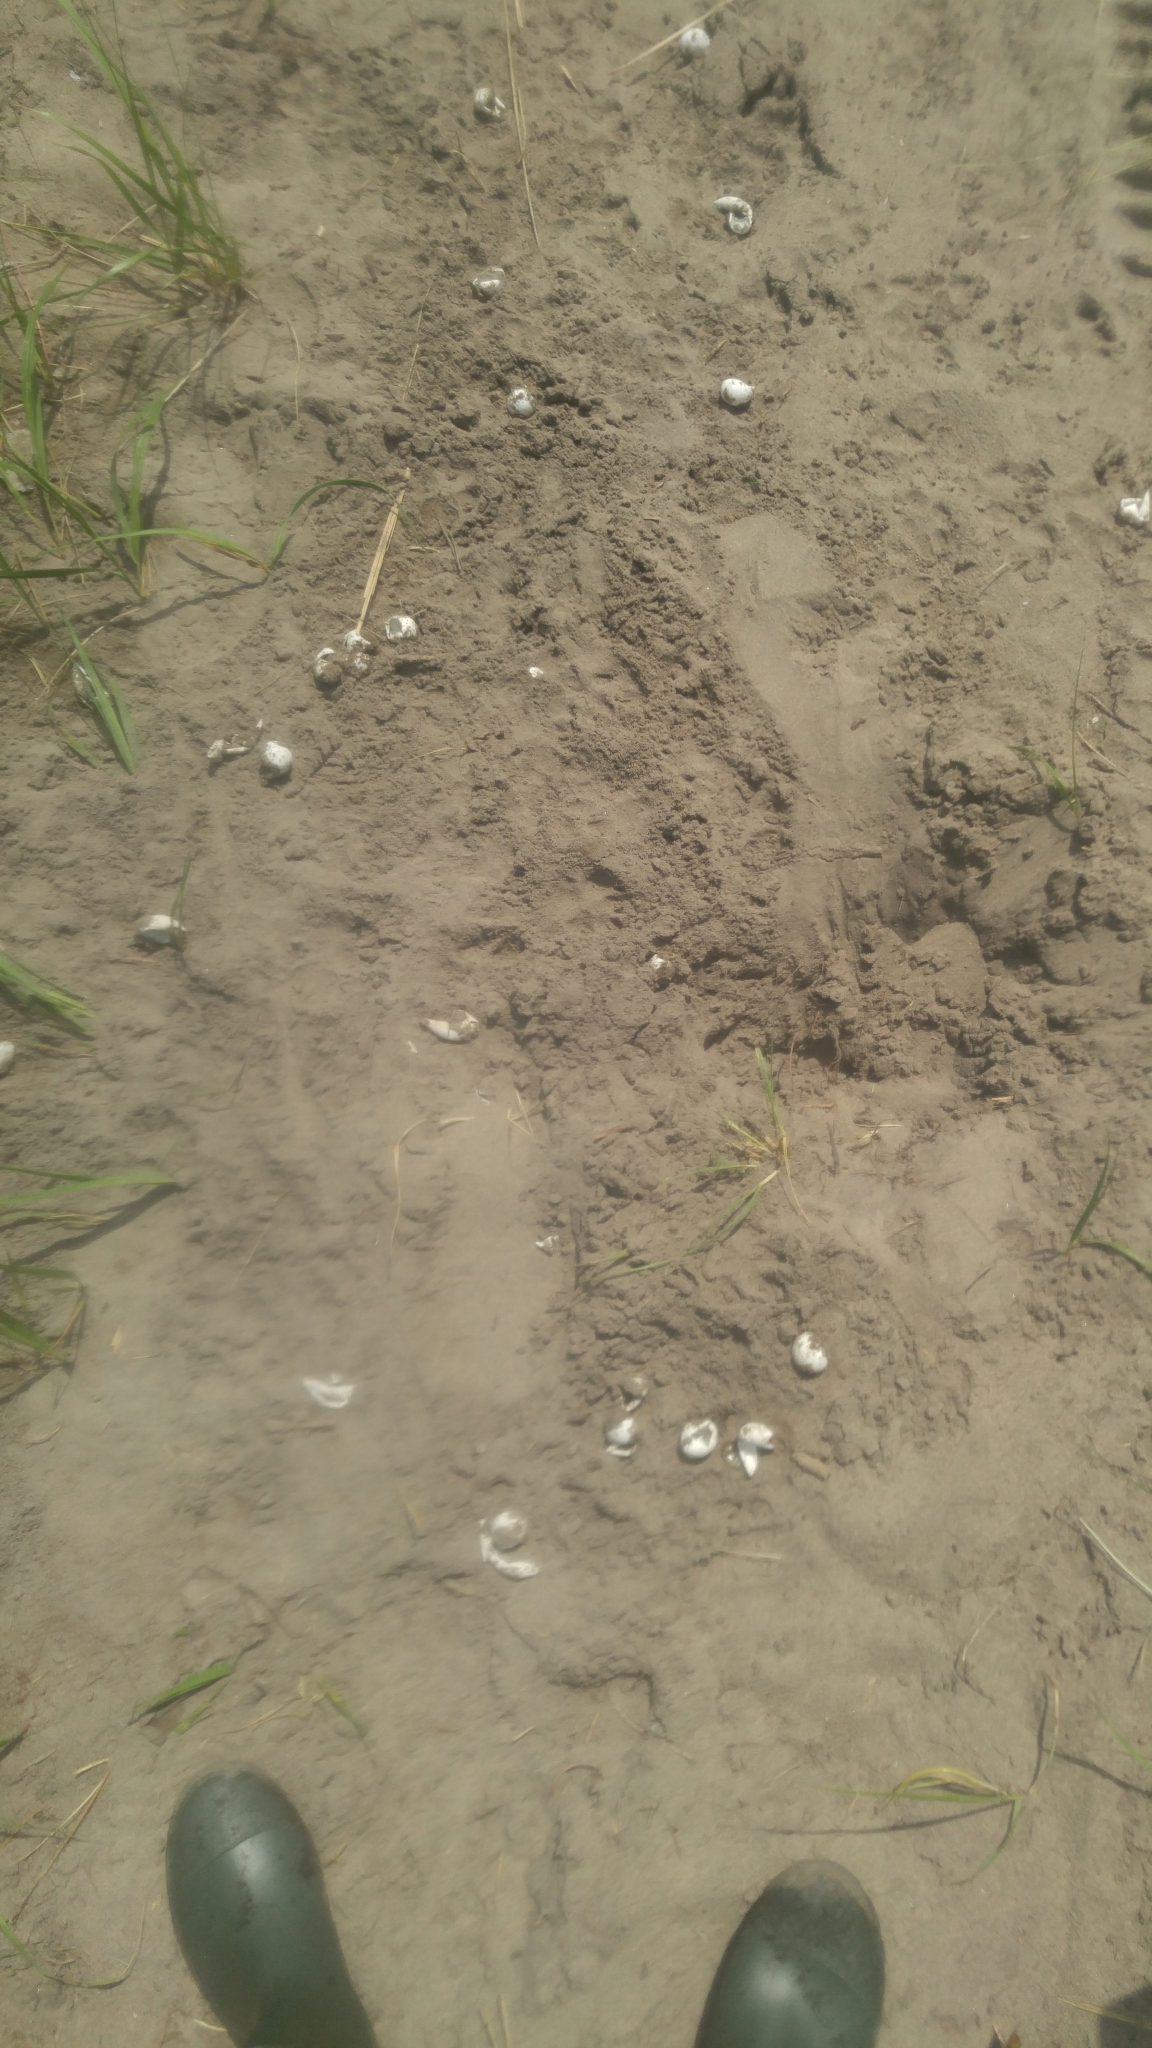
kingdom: Animalia
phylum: Chordata
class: Testudines
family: Chelydridae
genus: Chelydra
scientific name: Chelydra serpentina
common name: Common snapping turtle
